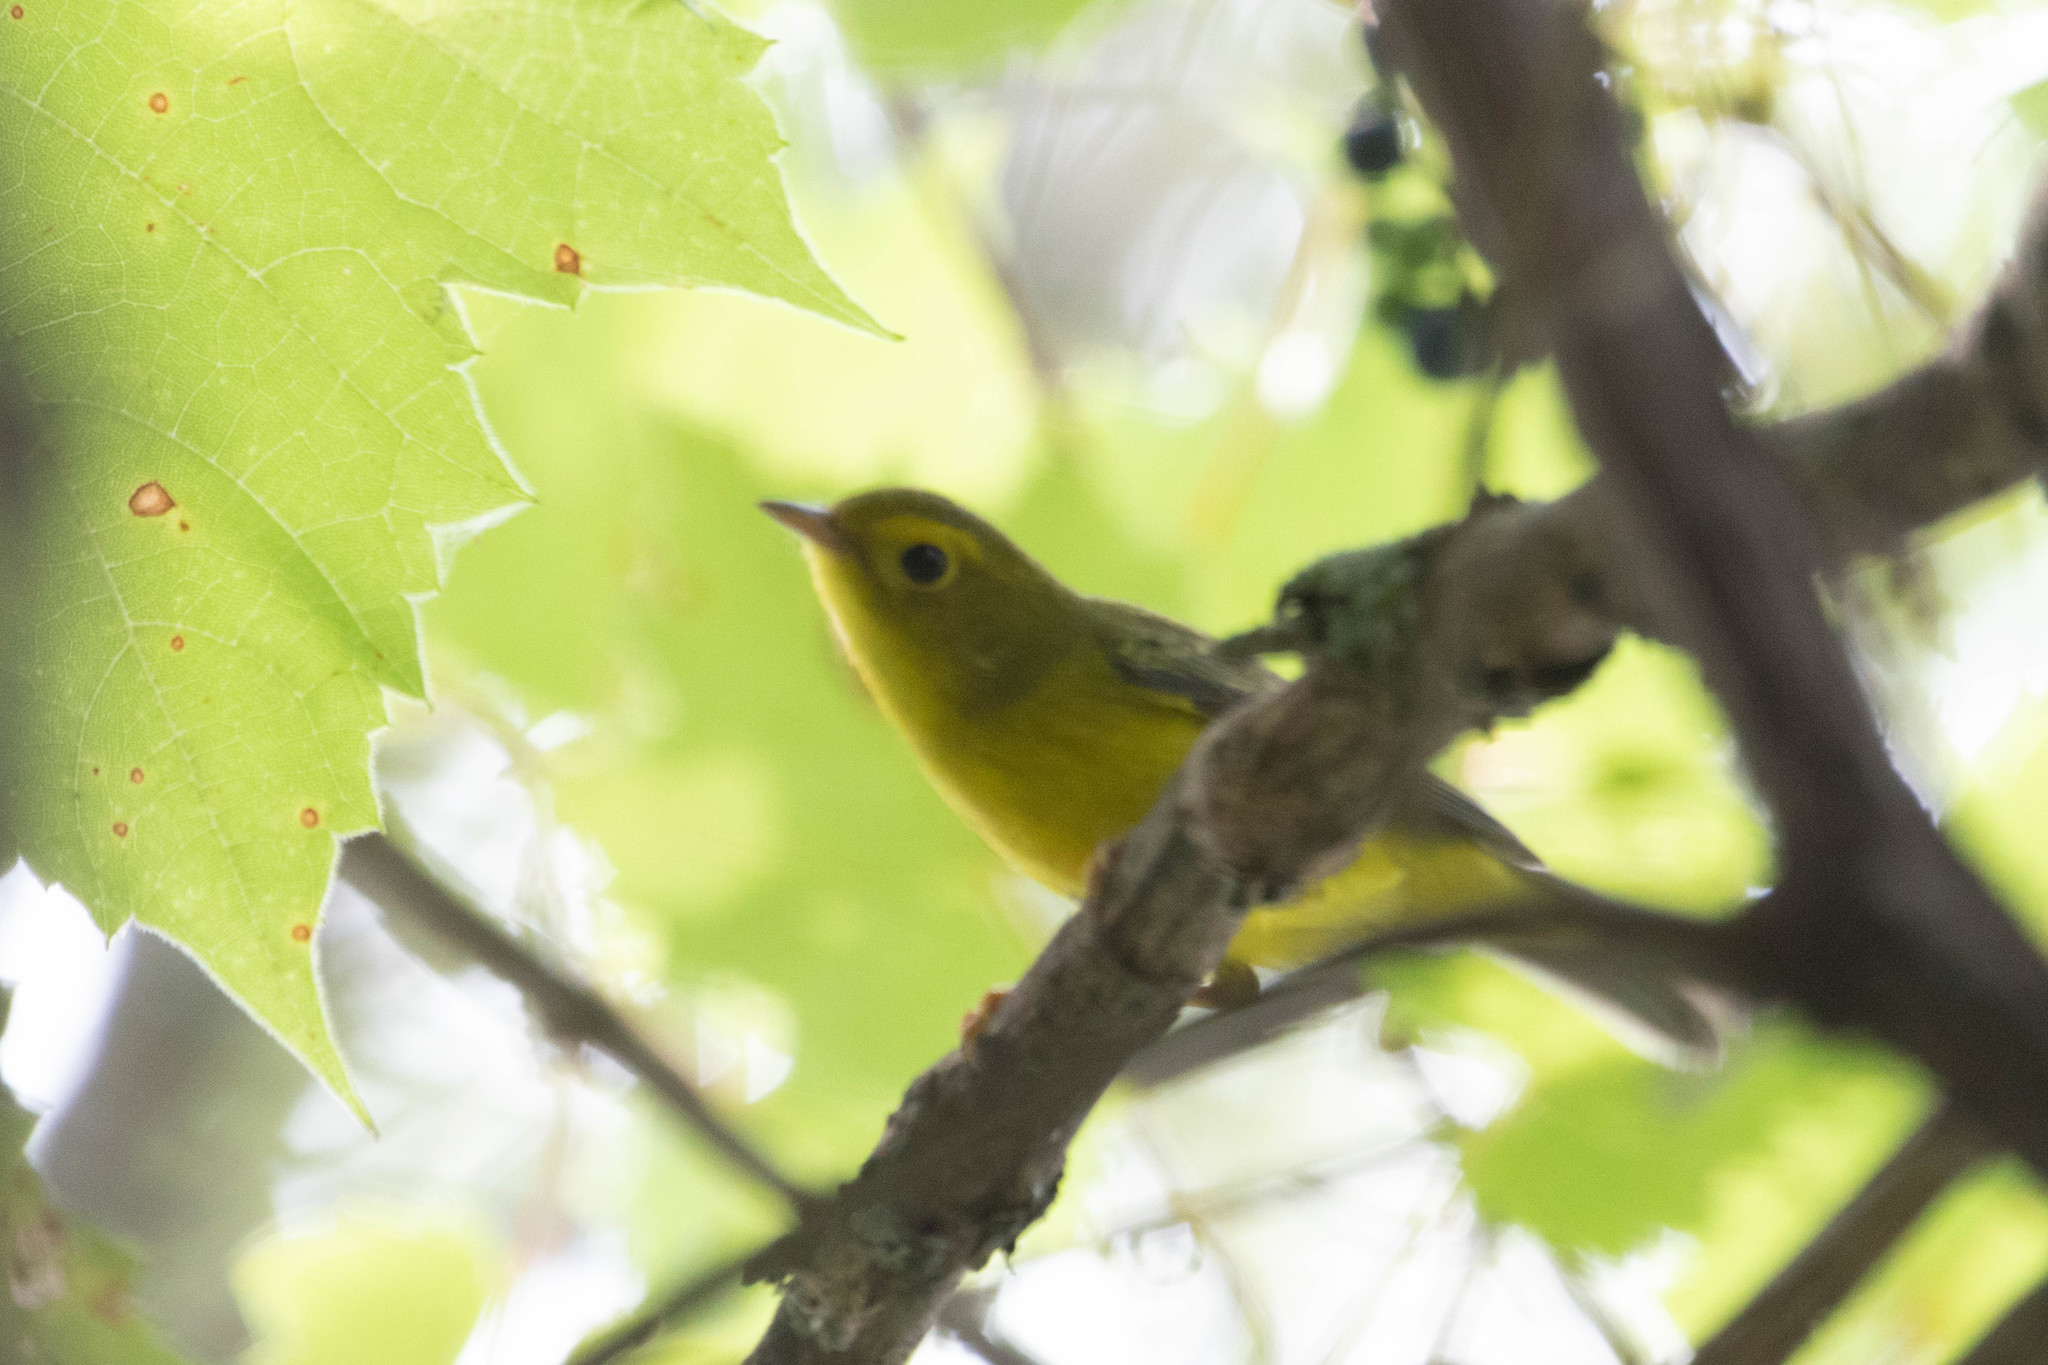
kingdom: Animalia
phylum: Chordata
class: Aves
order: Passeriformes
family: Parulidae
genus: Cardellina
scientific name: Cardellina pusilla
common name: Wilson's warbler
